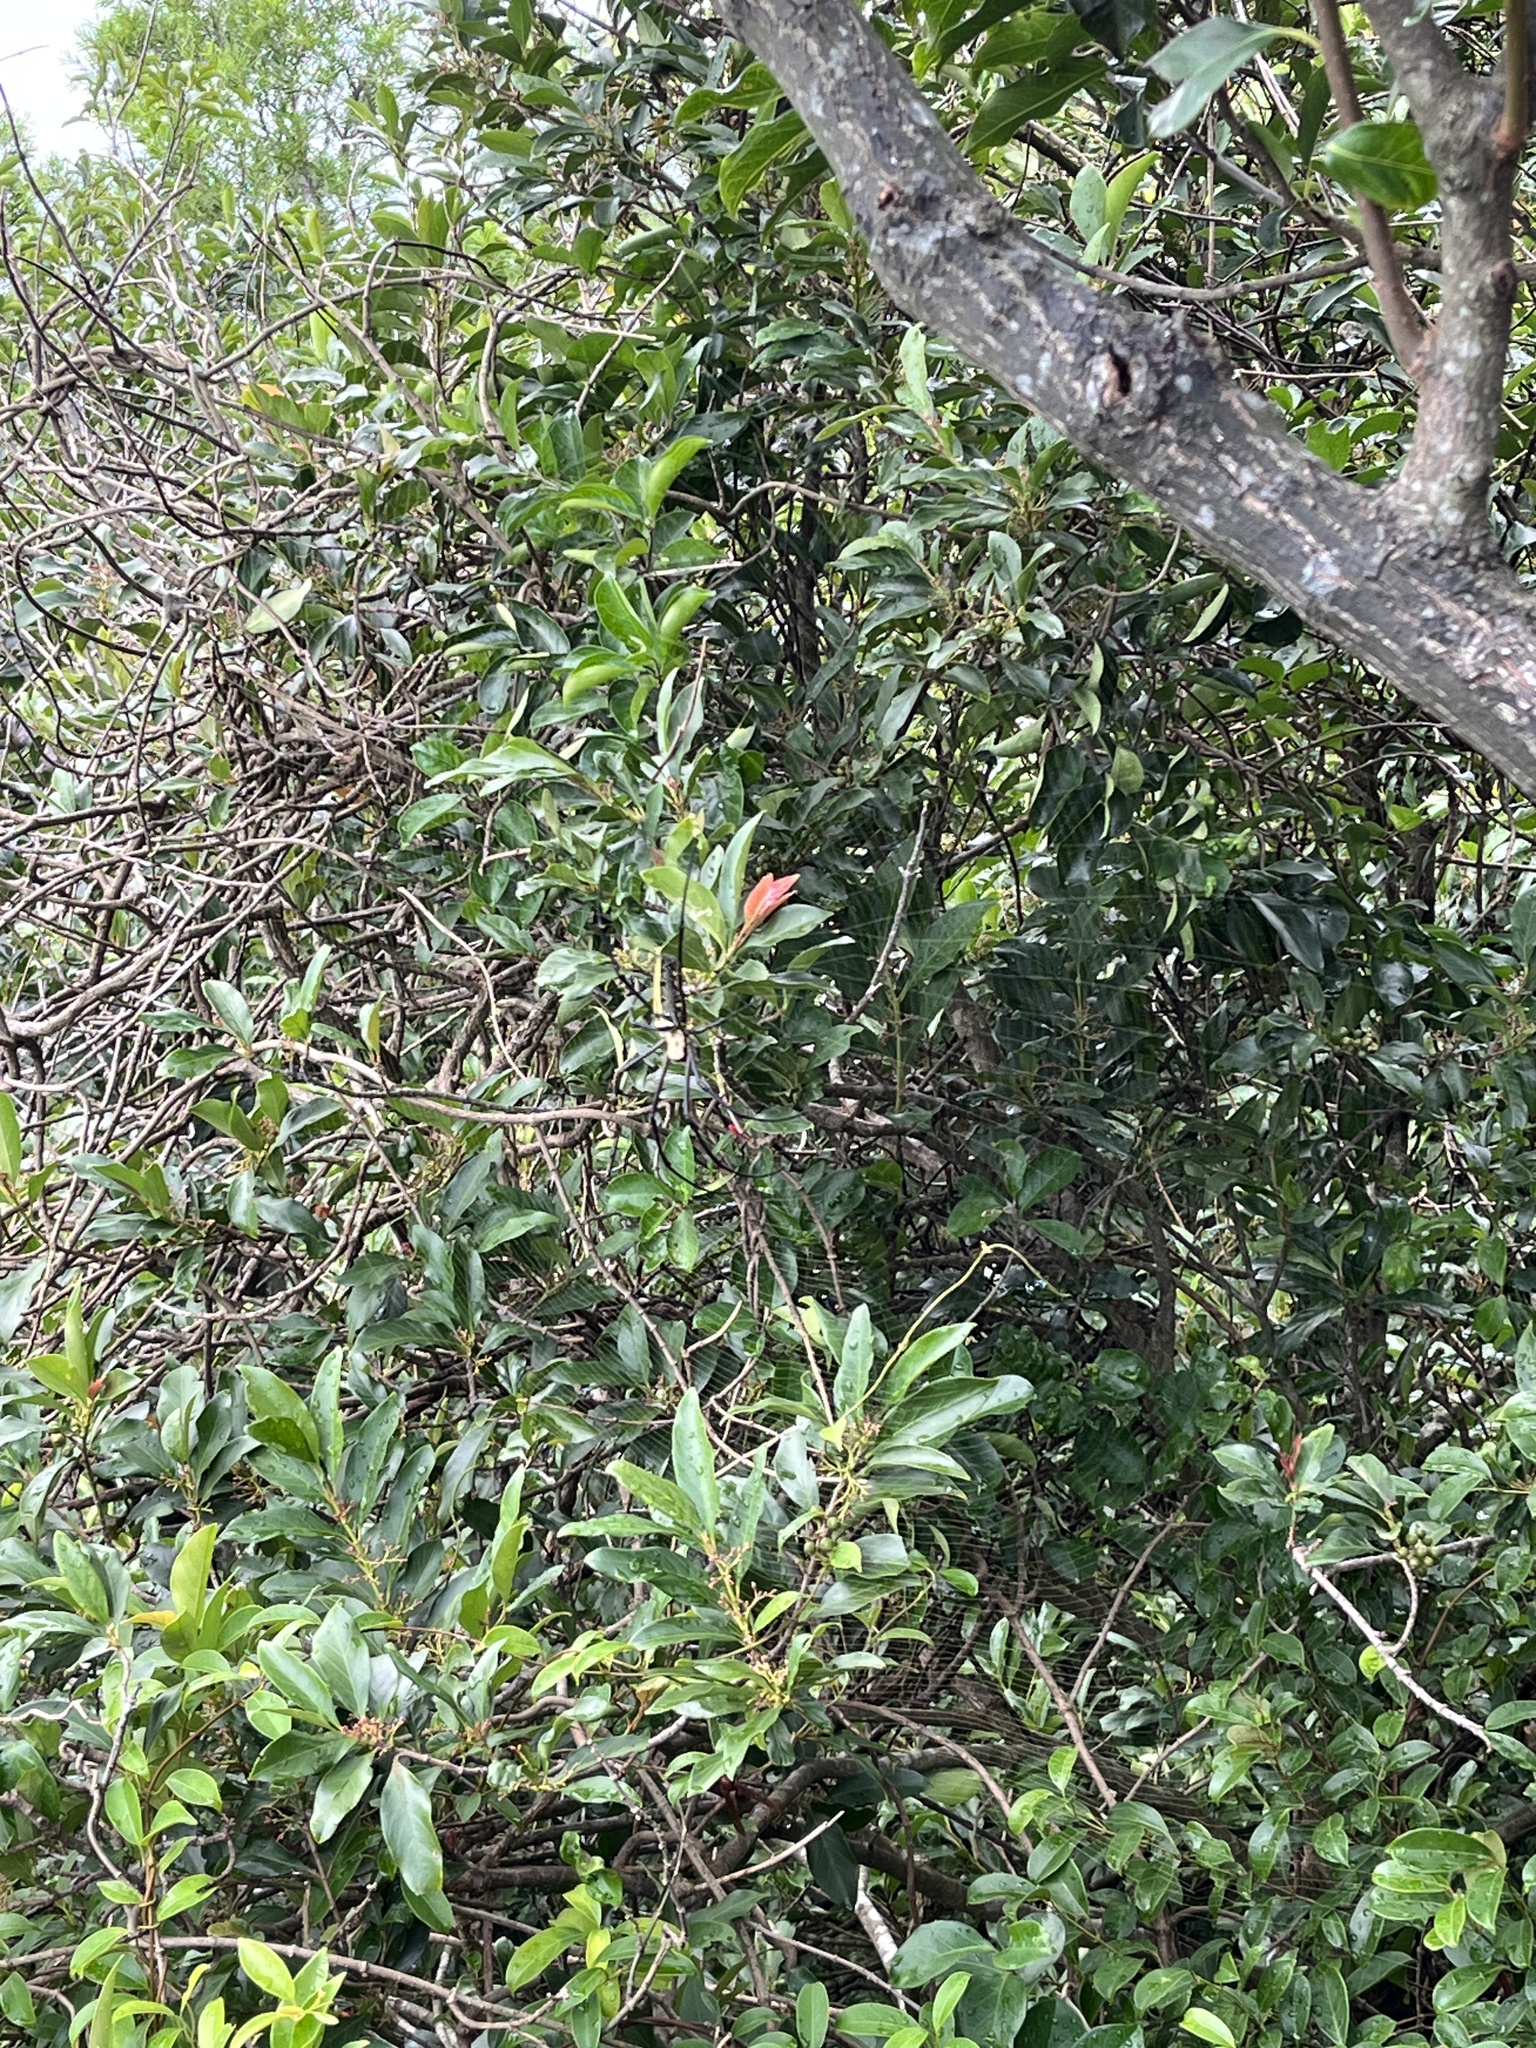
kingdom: Animalia
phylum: Arthropoda
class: Arachnida
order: Araneae
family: Araneidae
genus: Nephila
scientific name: Nephila pilipes
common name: Giant golden orb weaver
